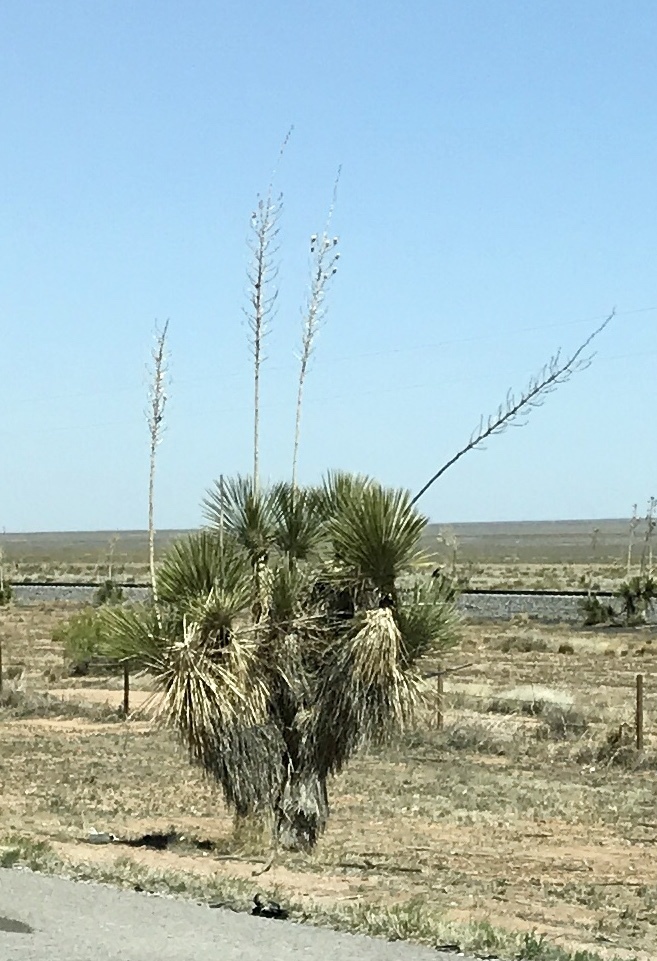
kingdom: Plantae
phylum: Tracheophyta
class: Liliopsida
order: Asparagales
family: Asparagaceae
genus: Yucca
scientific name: Yucca elata
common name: Palmella
